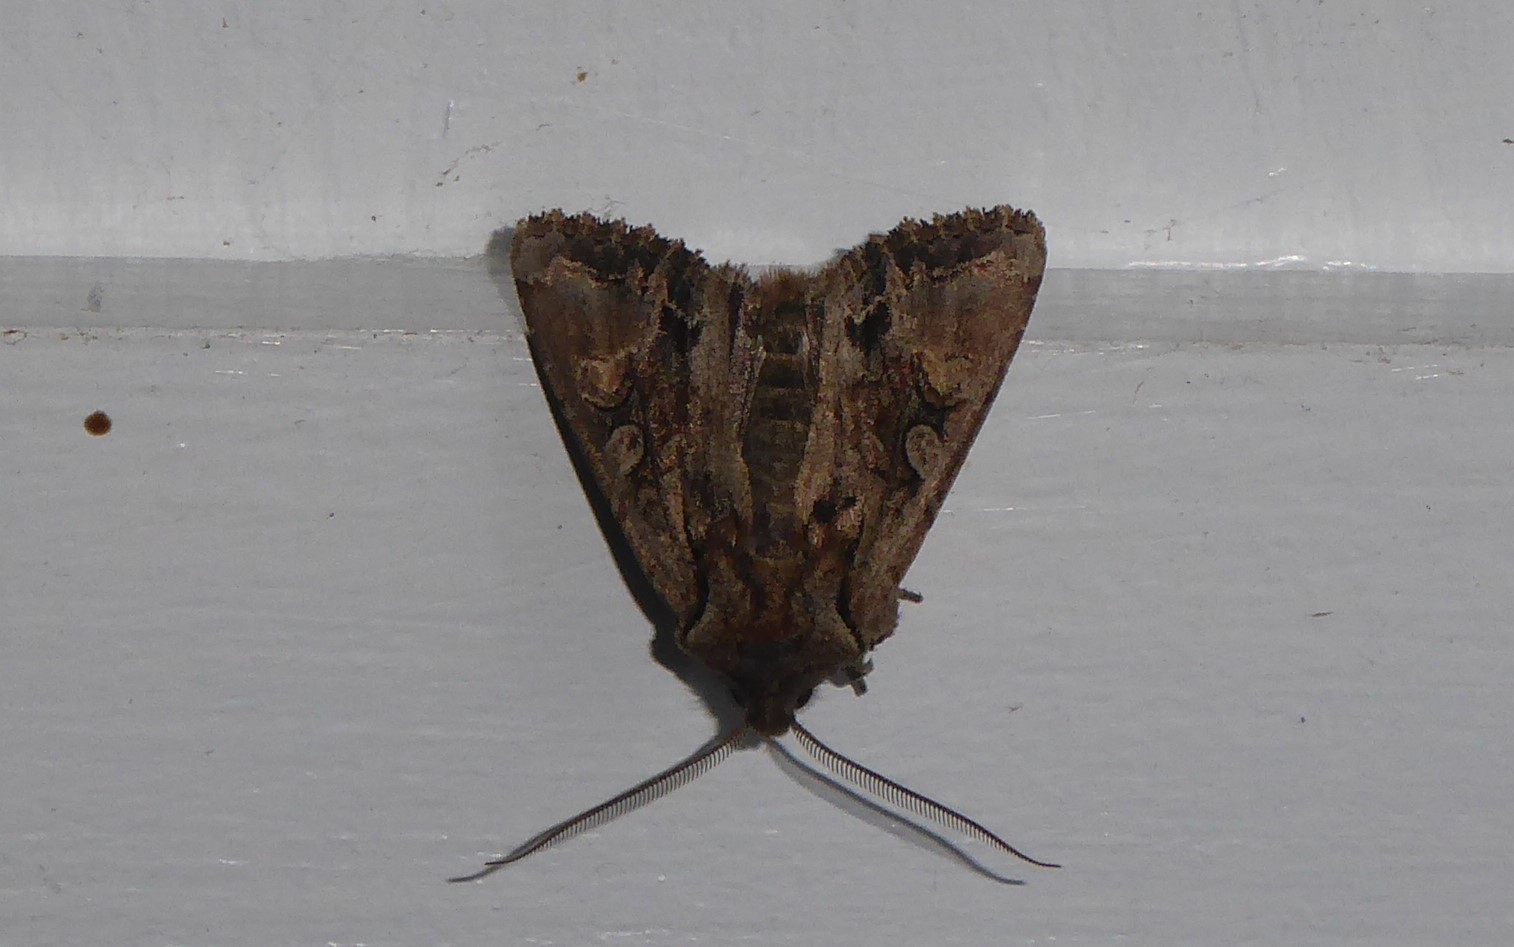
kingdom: Animalia
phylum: Arthropoda
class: Insecta
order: Lepidoptera
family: Noctuidae
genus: Ichneutica
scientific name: Ichneutica skelloni
